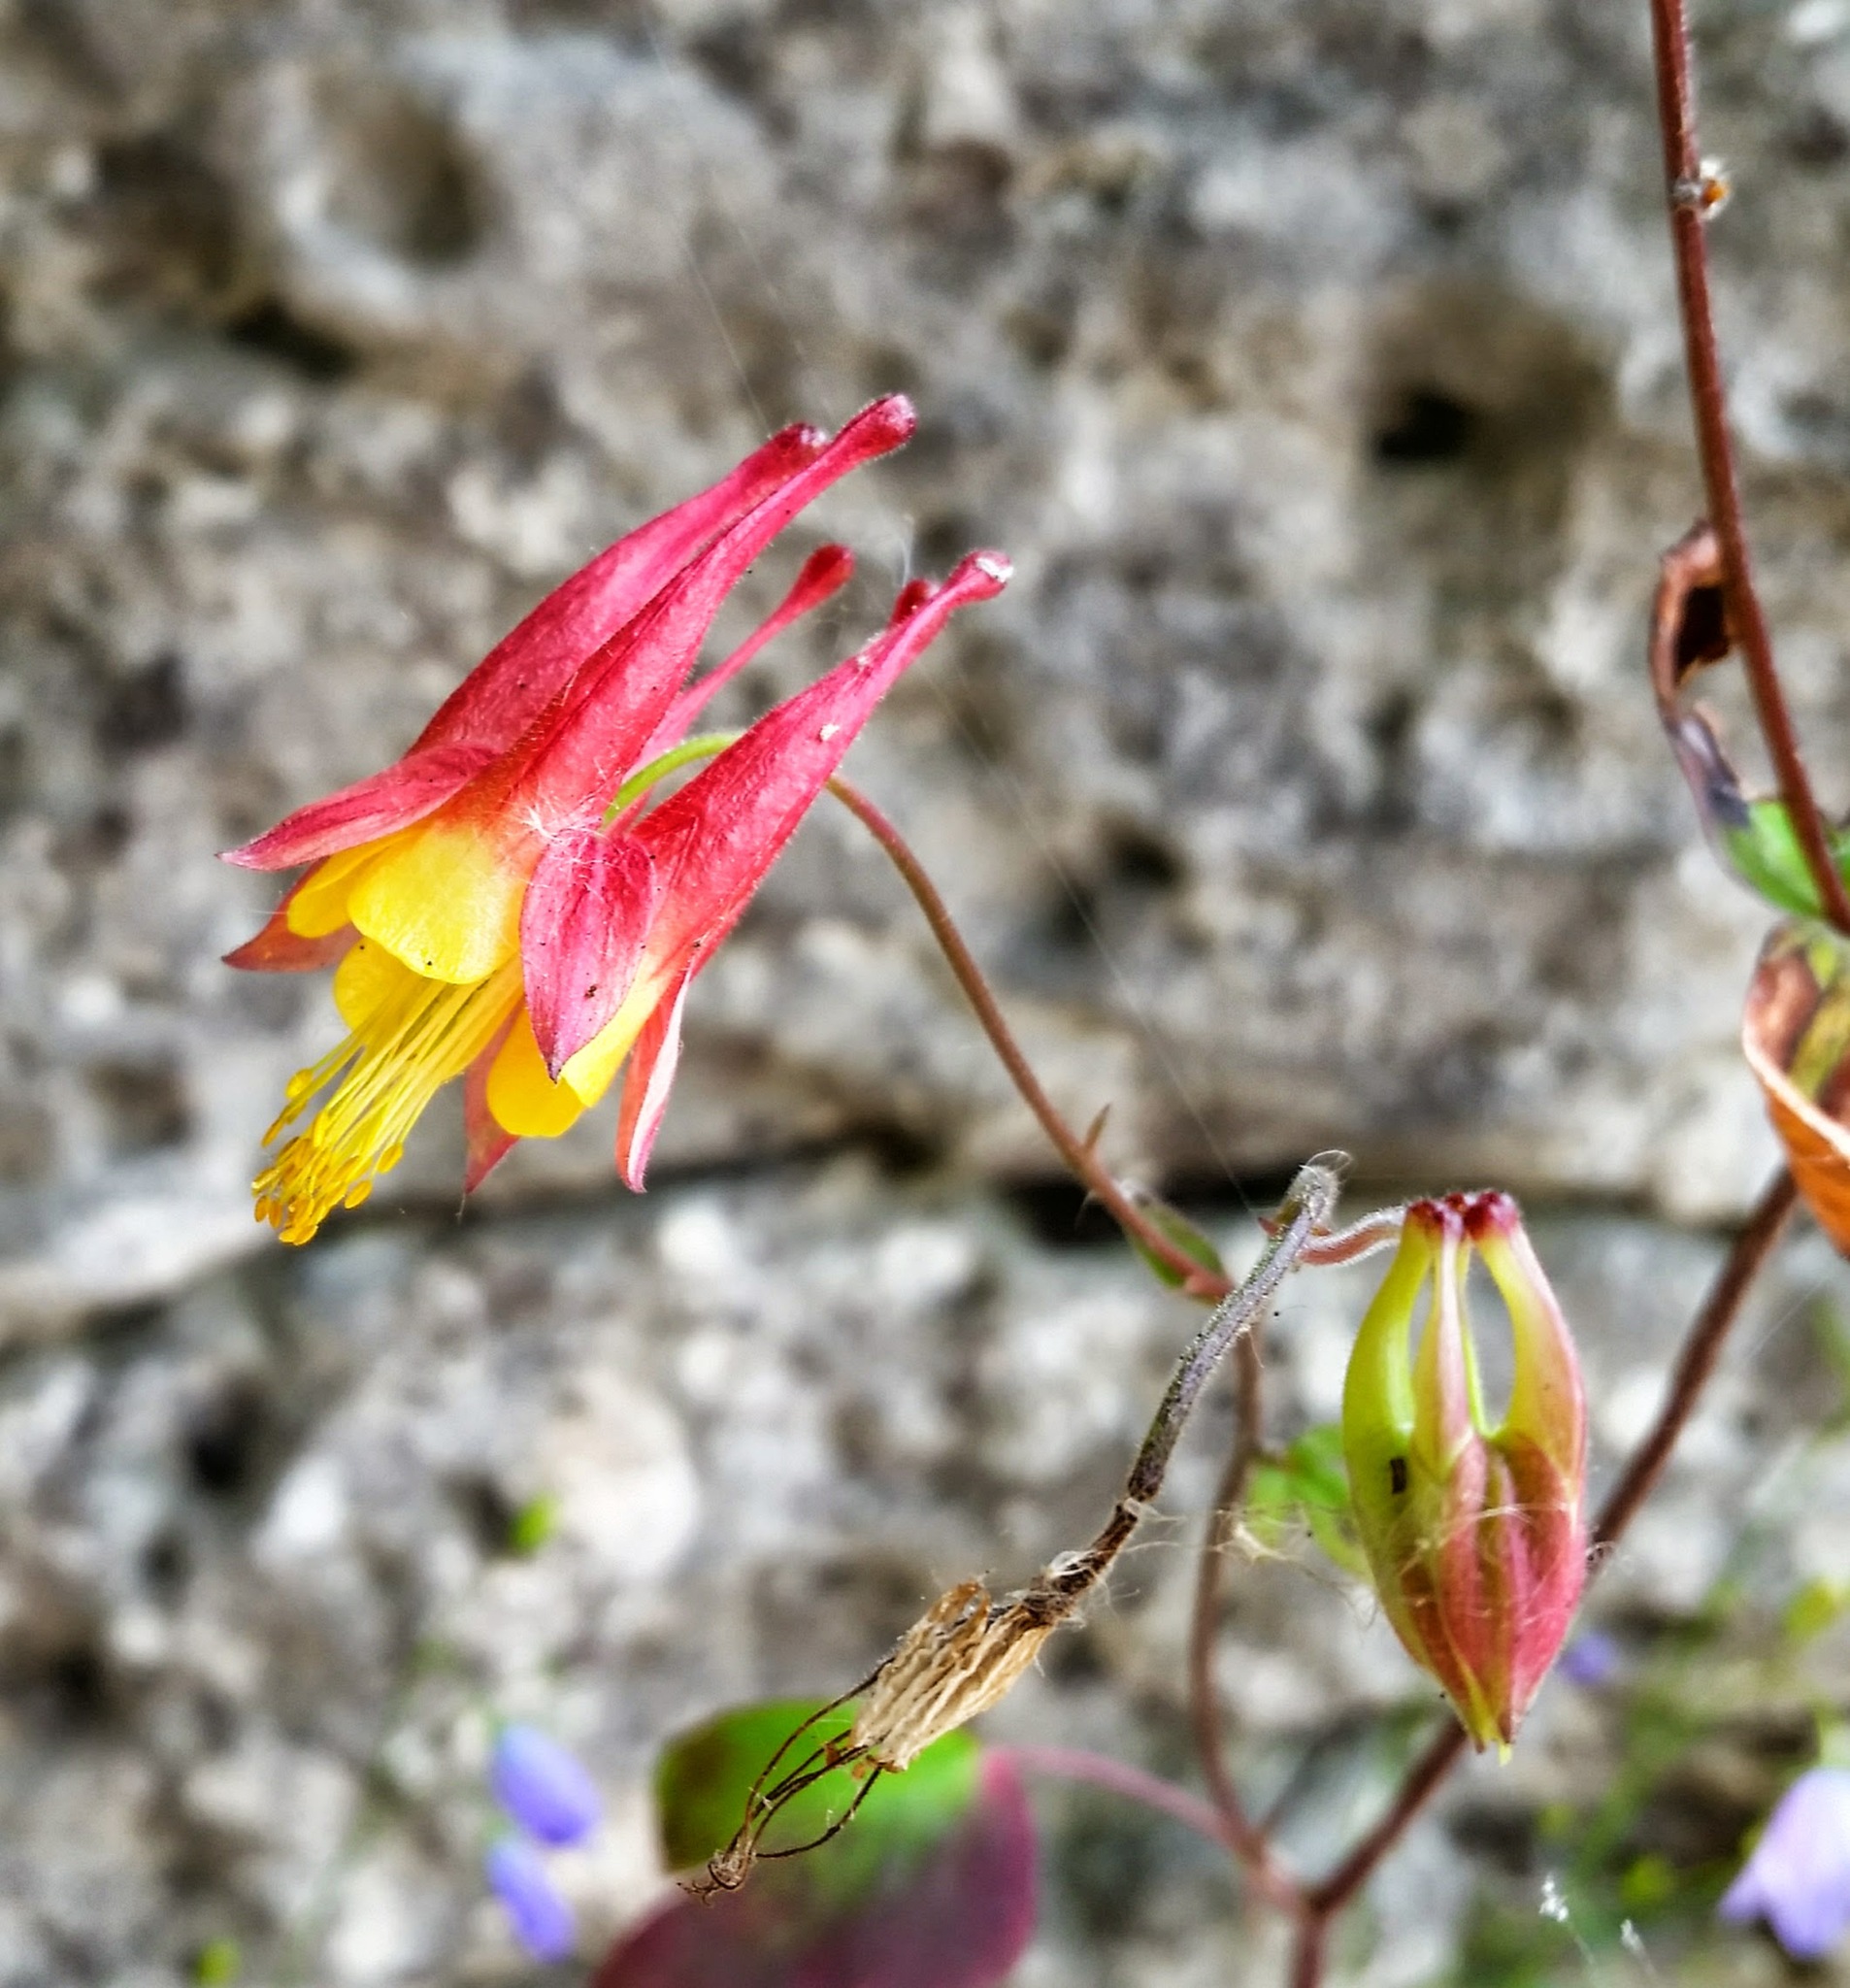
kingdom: Plantae
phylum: Tracheophyta
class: Magnoliopsida
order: Ranunculales
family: Ranunculaceae
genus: Aquilegia
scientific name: Aquilegia canadensis
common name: American columbine
